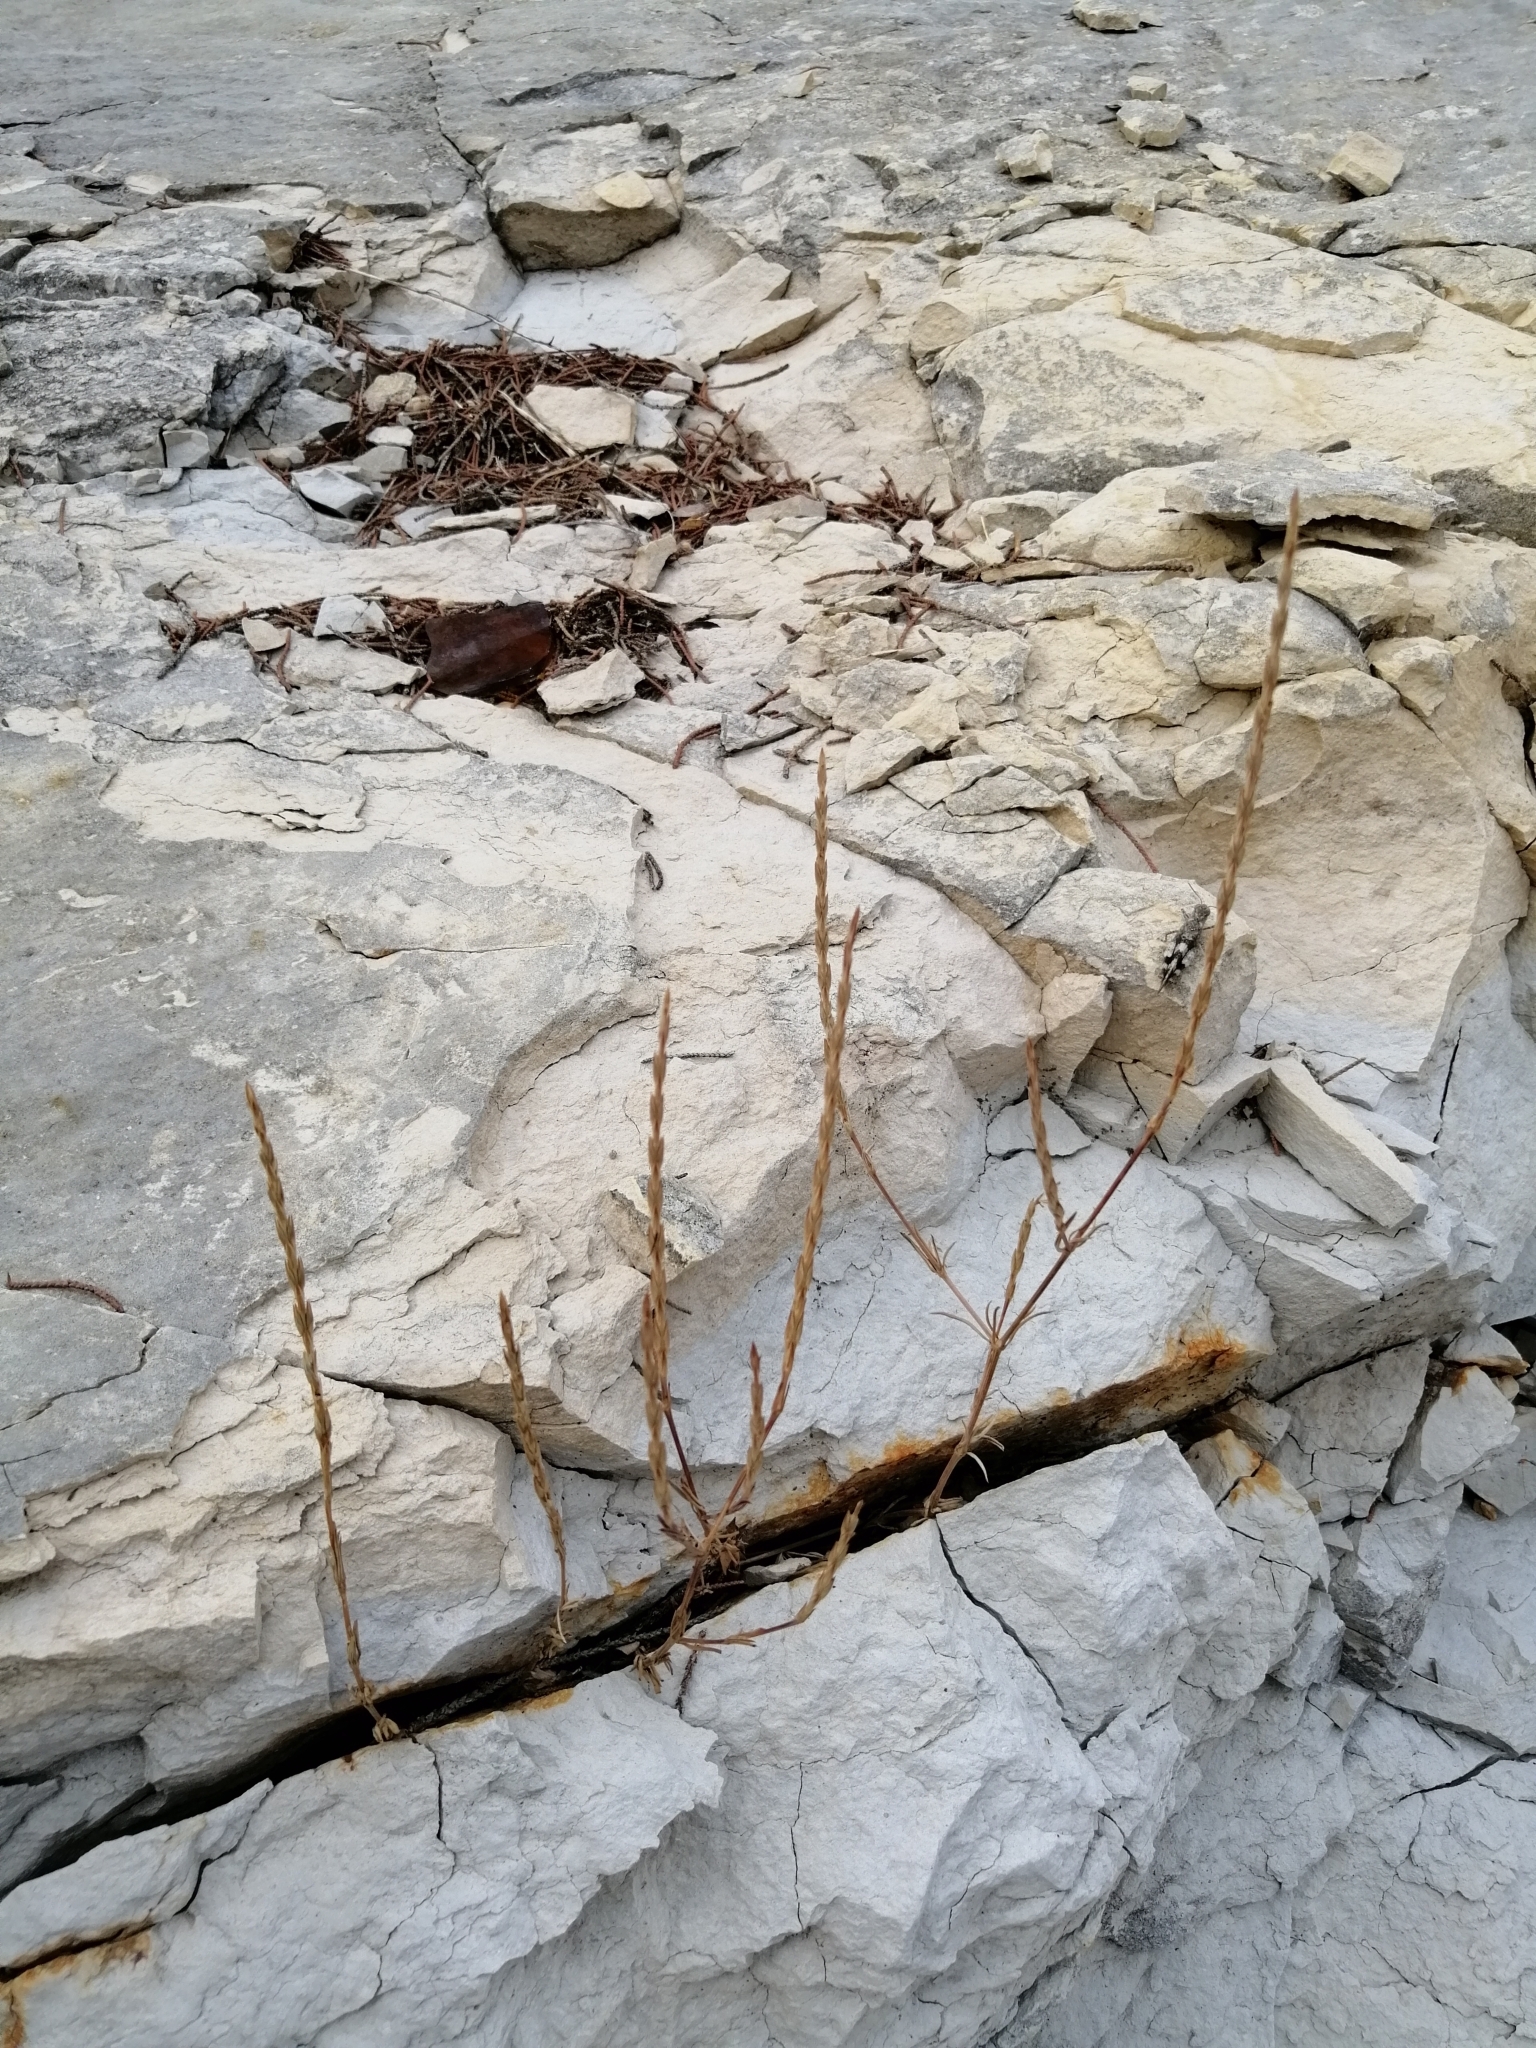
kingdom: Plantae
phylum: Tracheophyta
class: Magnoliopsida
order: Gentianales
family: Rubiaceae
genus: Crucianella
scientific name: Crucianella angustifolia
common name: Narrowleaf crucianella
